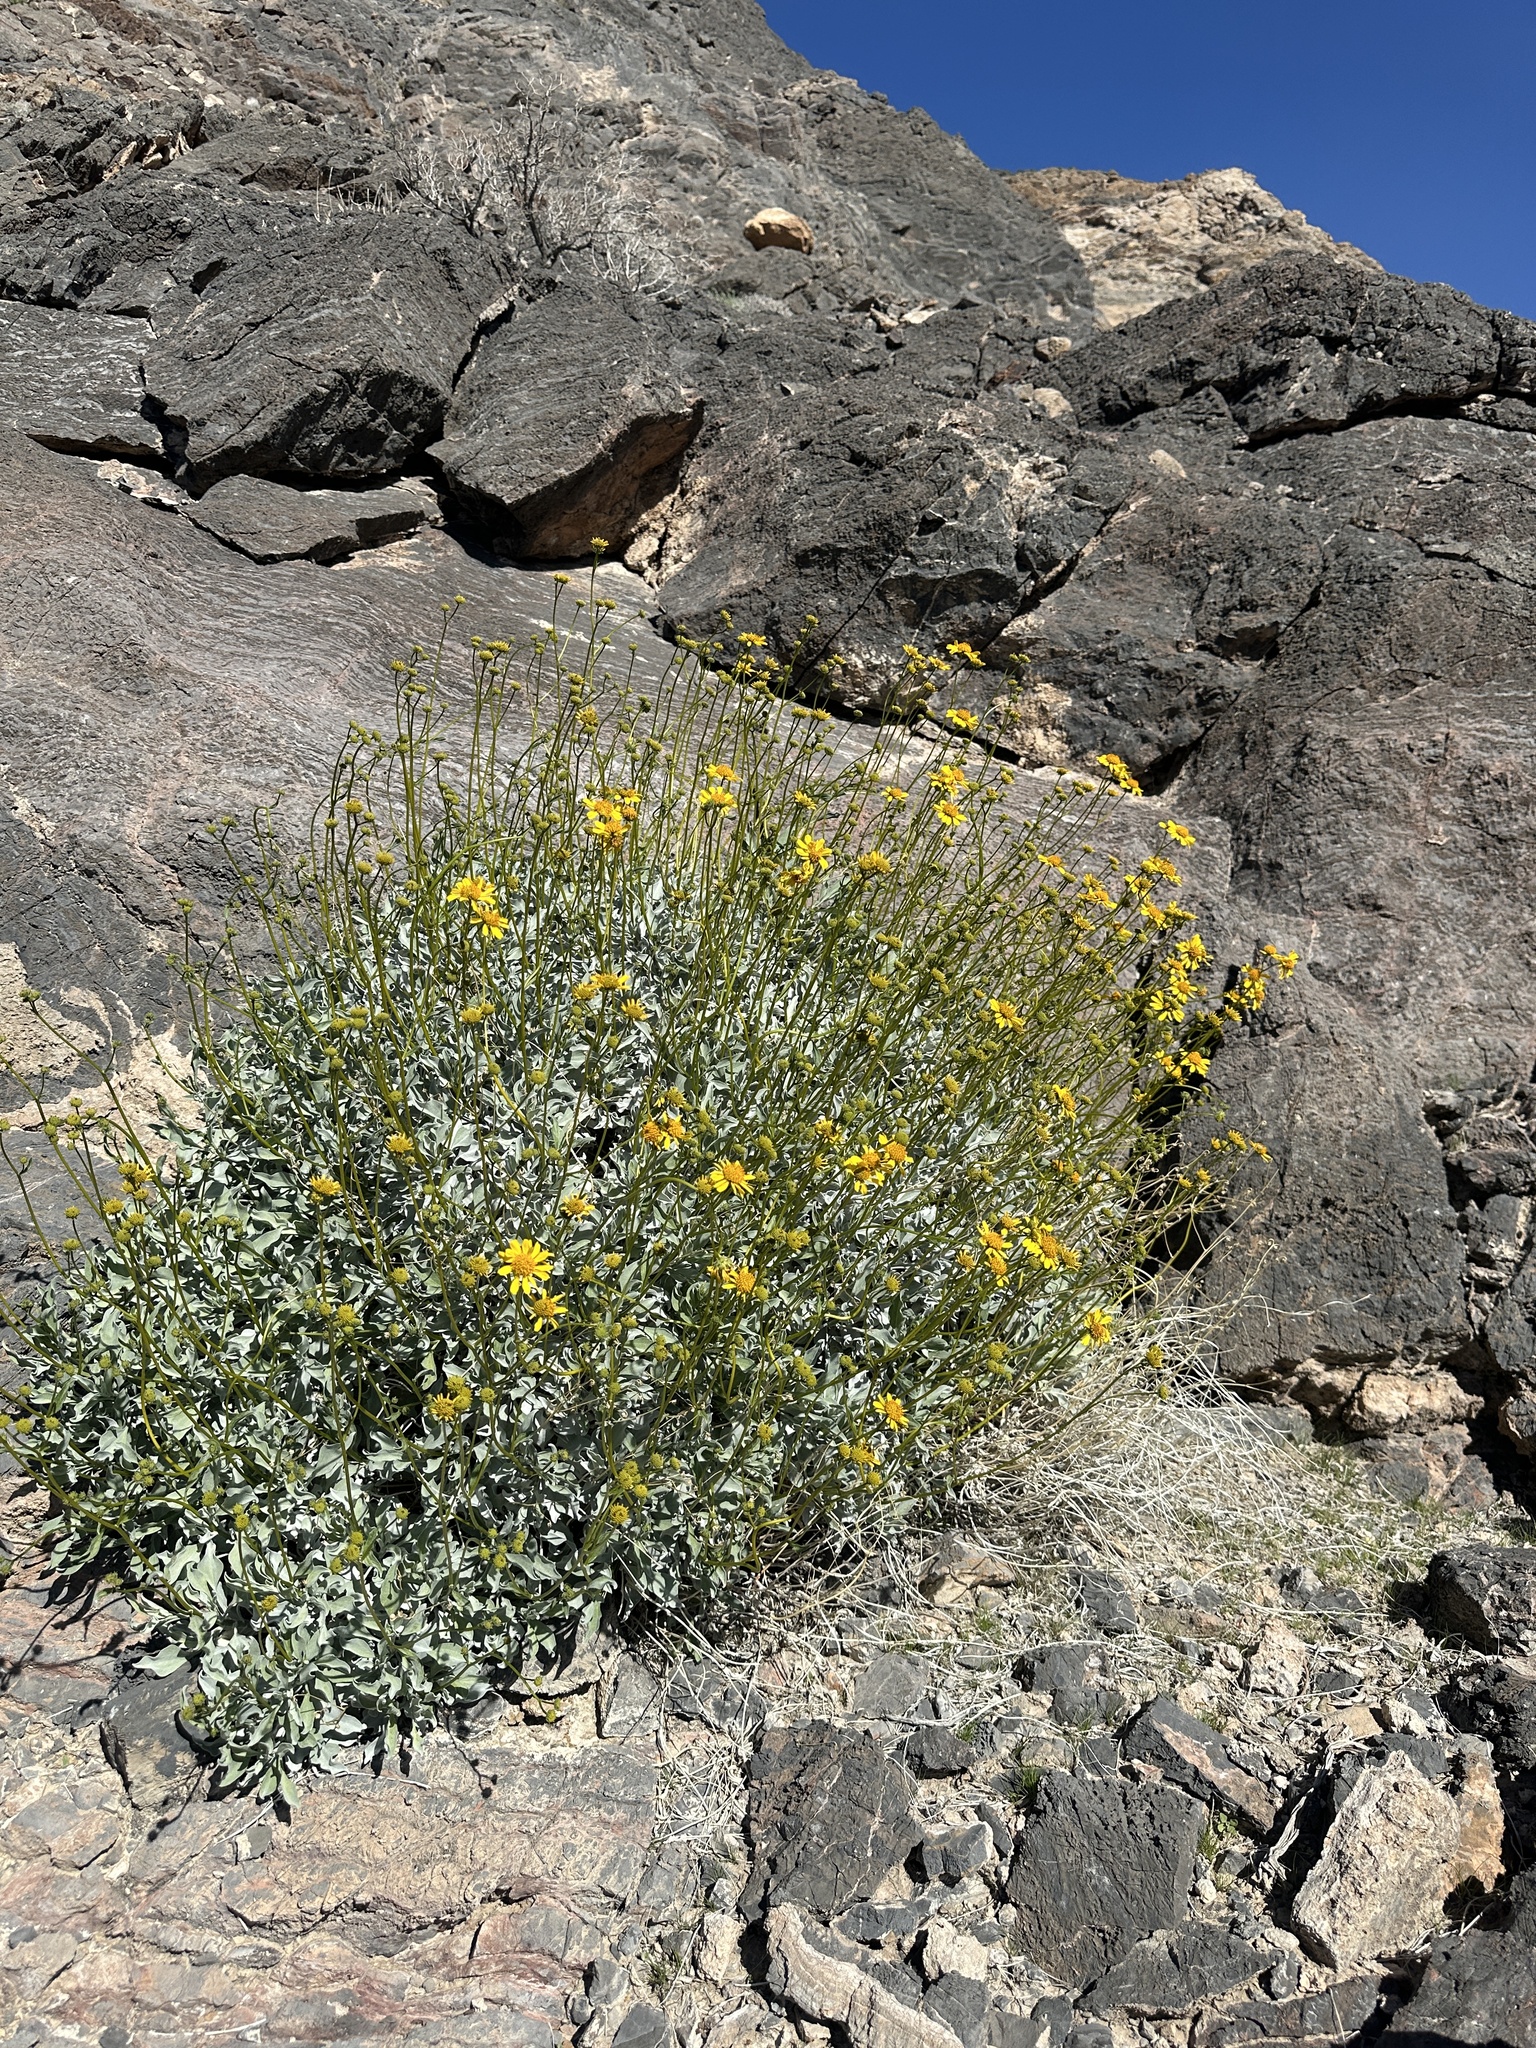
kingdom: Plantae
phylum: Tracheophyta
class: Magnoliopsida
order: Asterales
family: Asteraceae
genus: Encelia
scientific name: Encelia farinosa
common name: Brittlebush
